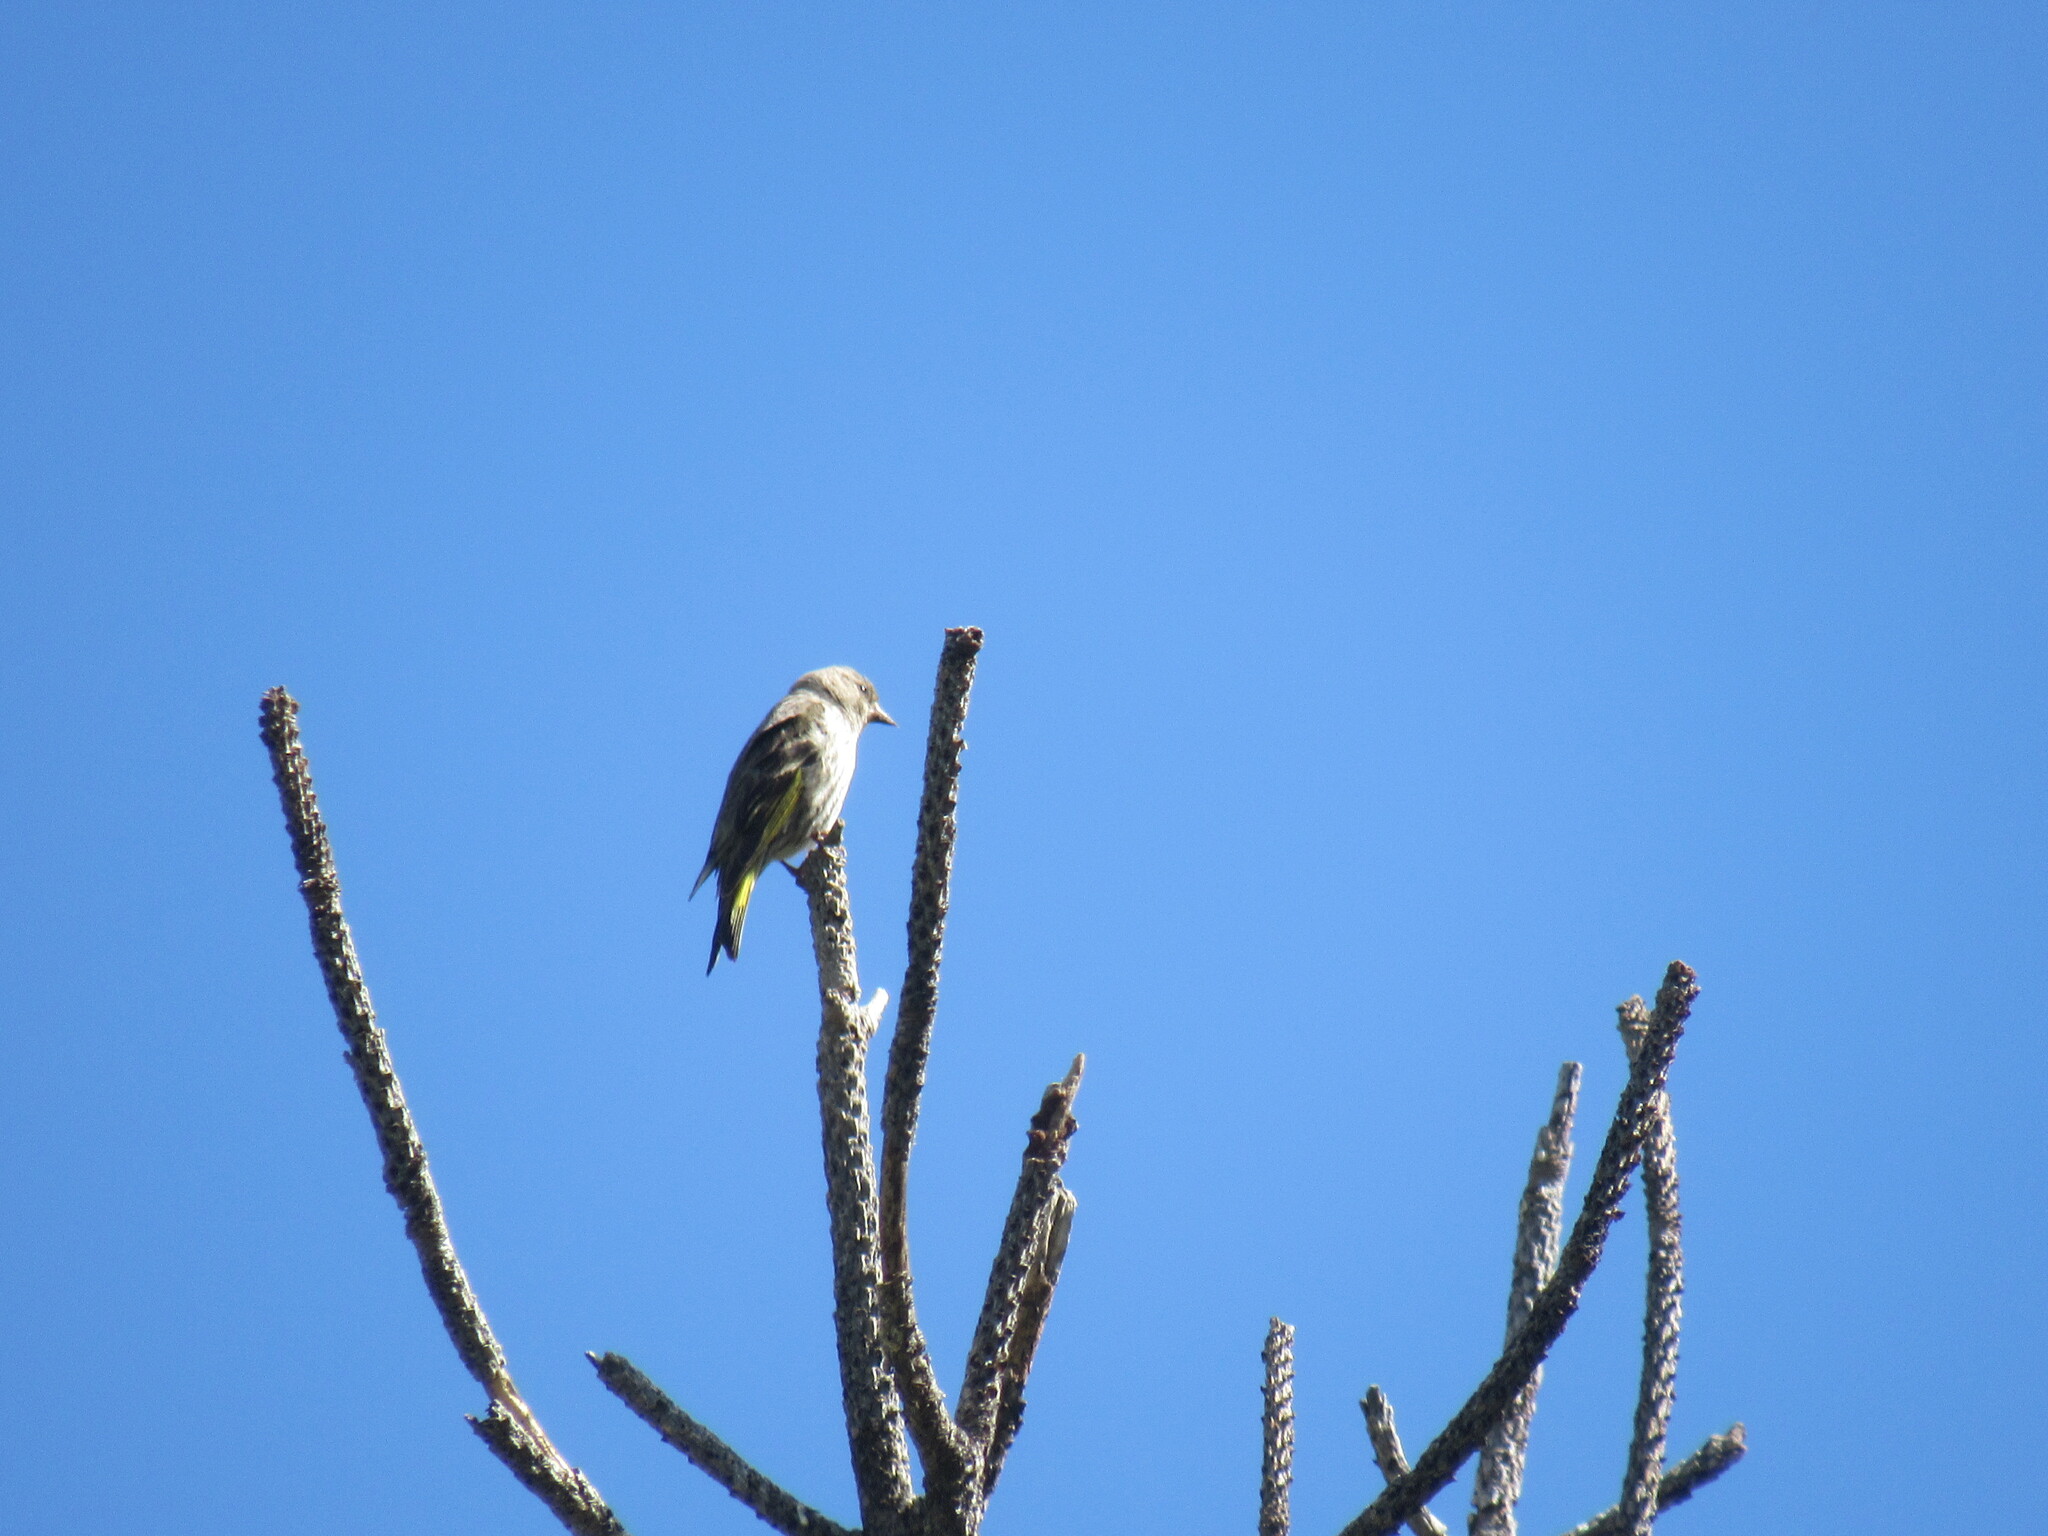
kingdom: Animalia
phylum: Chordata
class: Aves
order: Passeriformes
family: Fringillidae
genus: Spinus
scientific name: Spinus pinus
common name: Pine siskin
